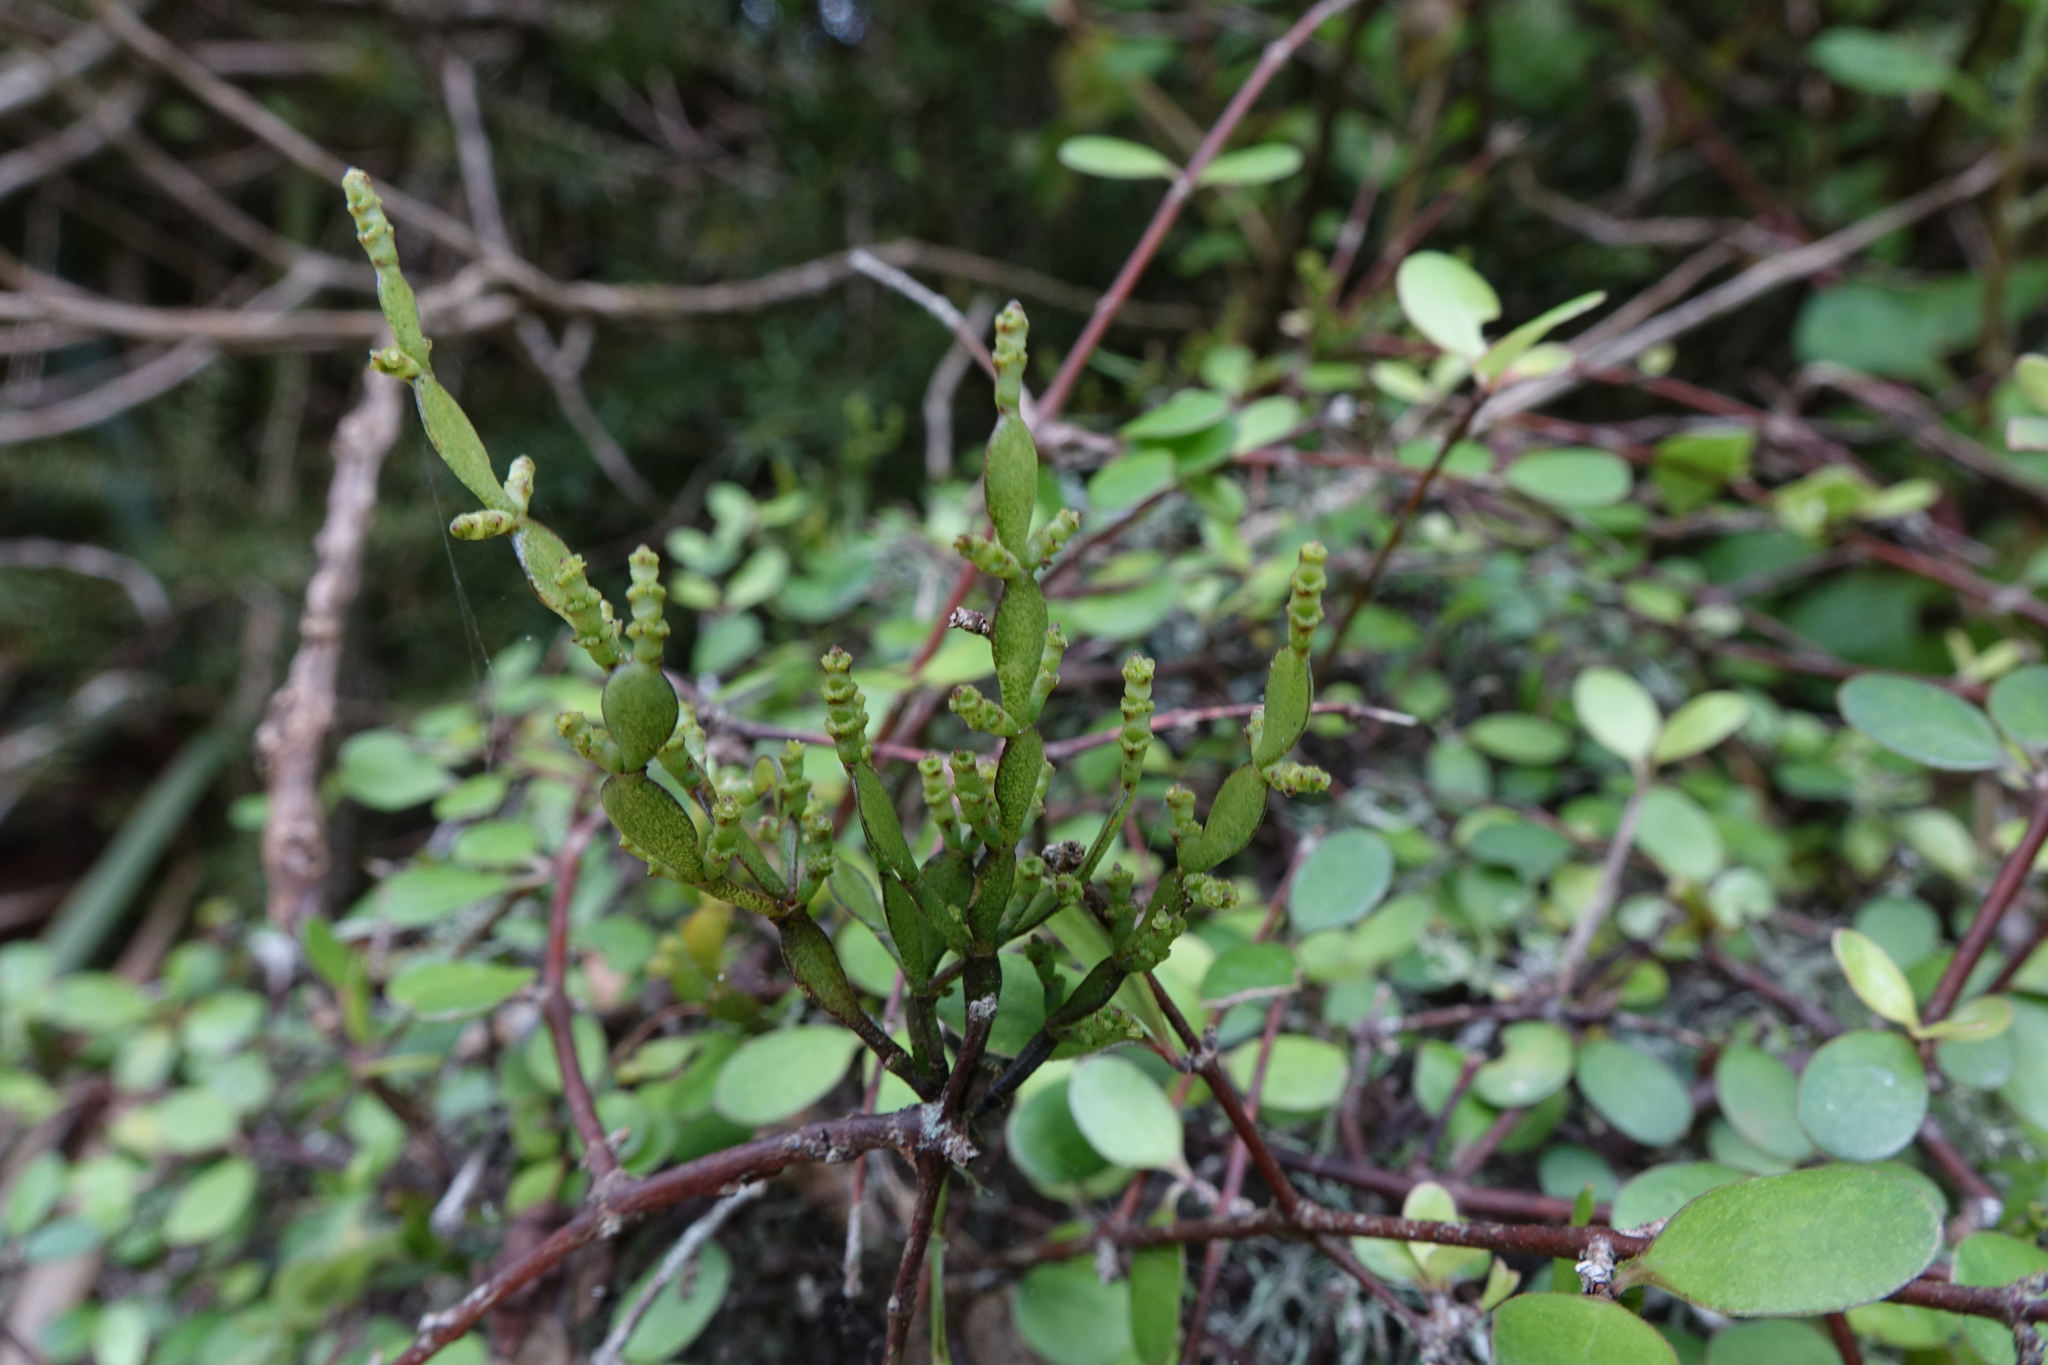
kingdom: Plantae
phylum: Tracheophyta
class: Magnoliopsida
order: Santalales
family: Viscaceae
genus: Korthalsella
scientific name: Korthalsella lindsayi
